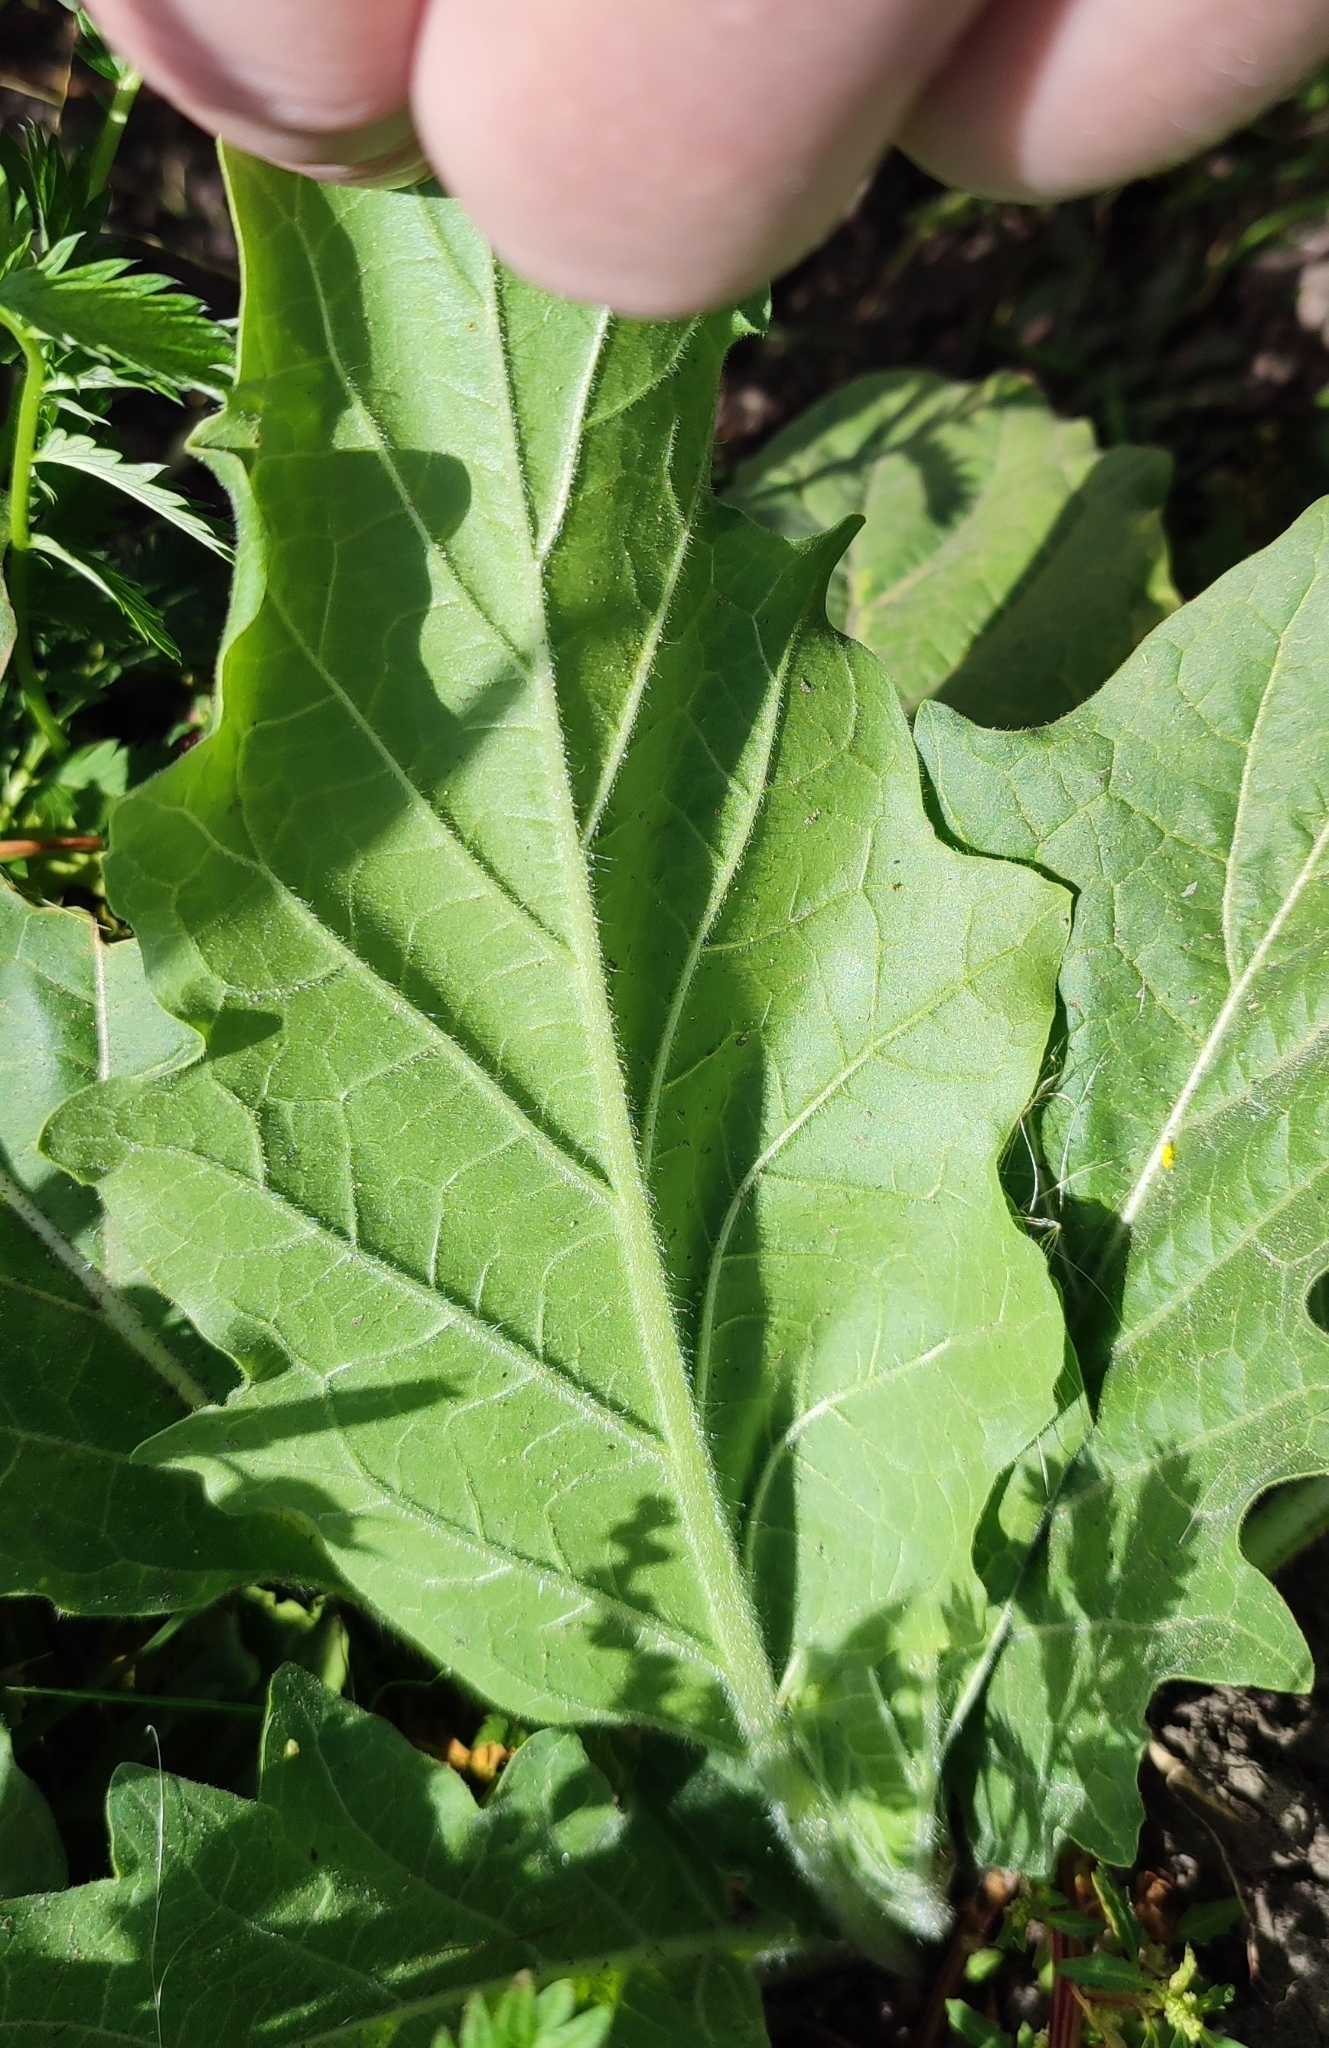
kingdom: Plantae
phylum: Tracheophyta
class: Magnoliopsida
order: Solanales
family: Solanaceae
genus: Hyoscyamus
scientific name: Hyoscyamus niger
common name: Henbane
